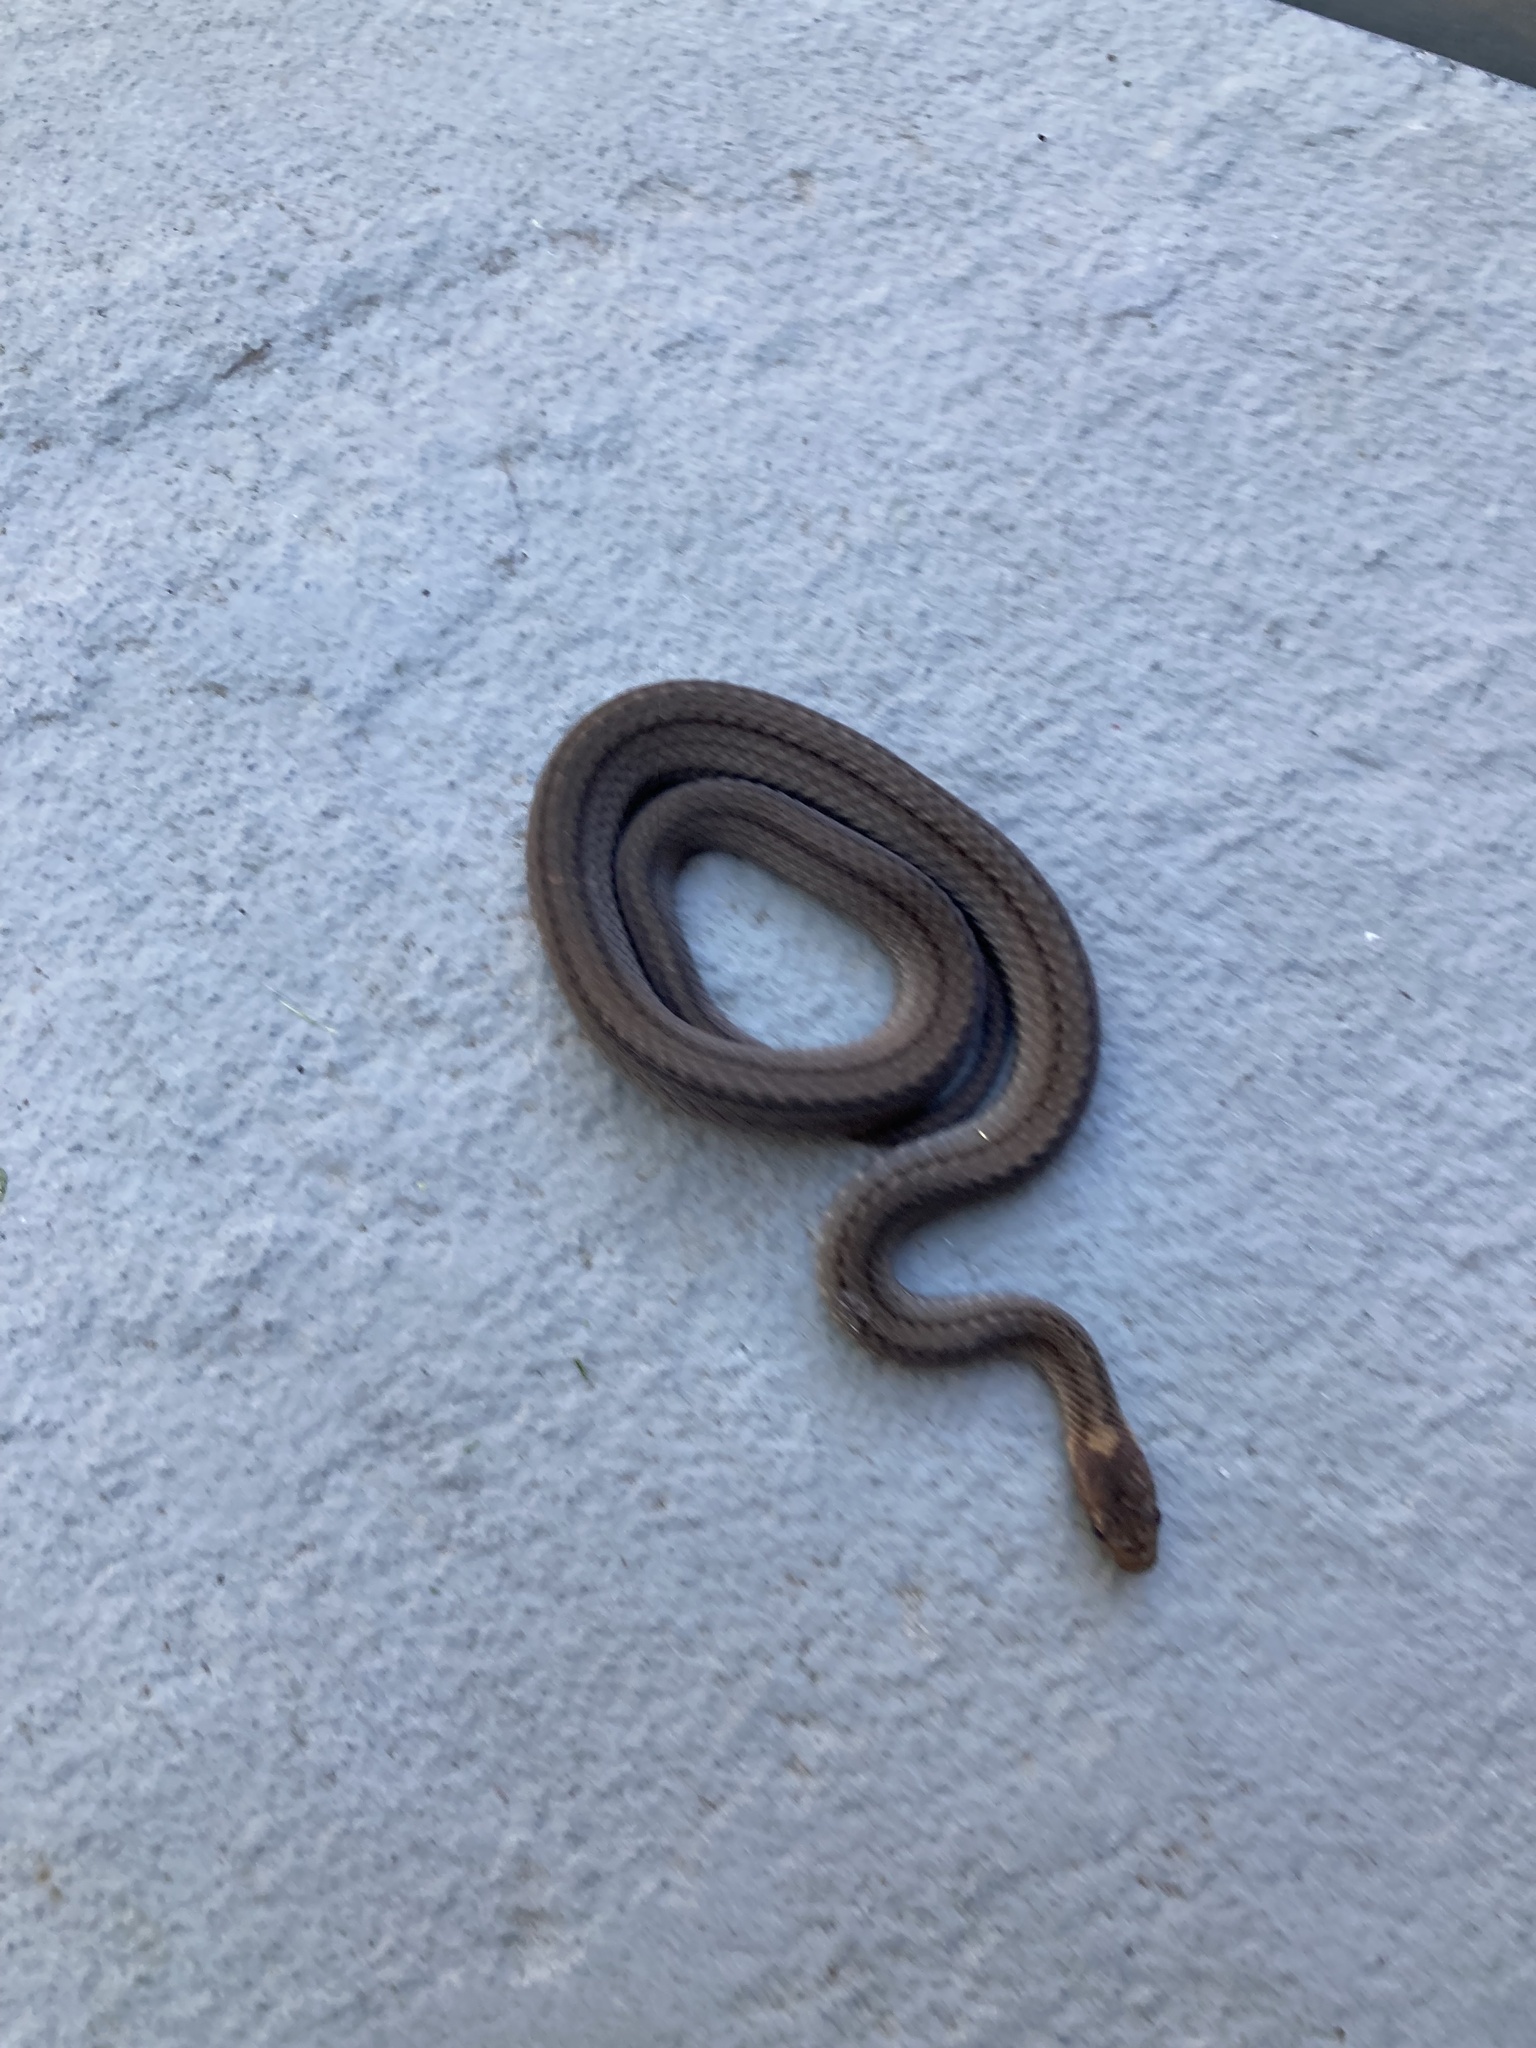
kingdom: Animalia
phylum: Chordata
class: Squamata
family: Colubridae
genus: Storeria
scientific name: Storeria occipitomaculata
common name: Redbelly snake
